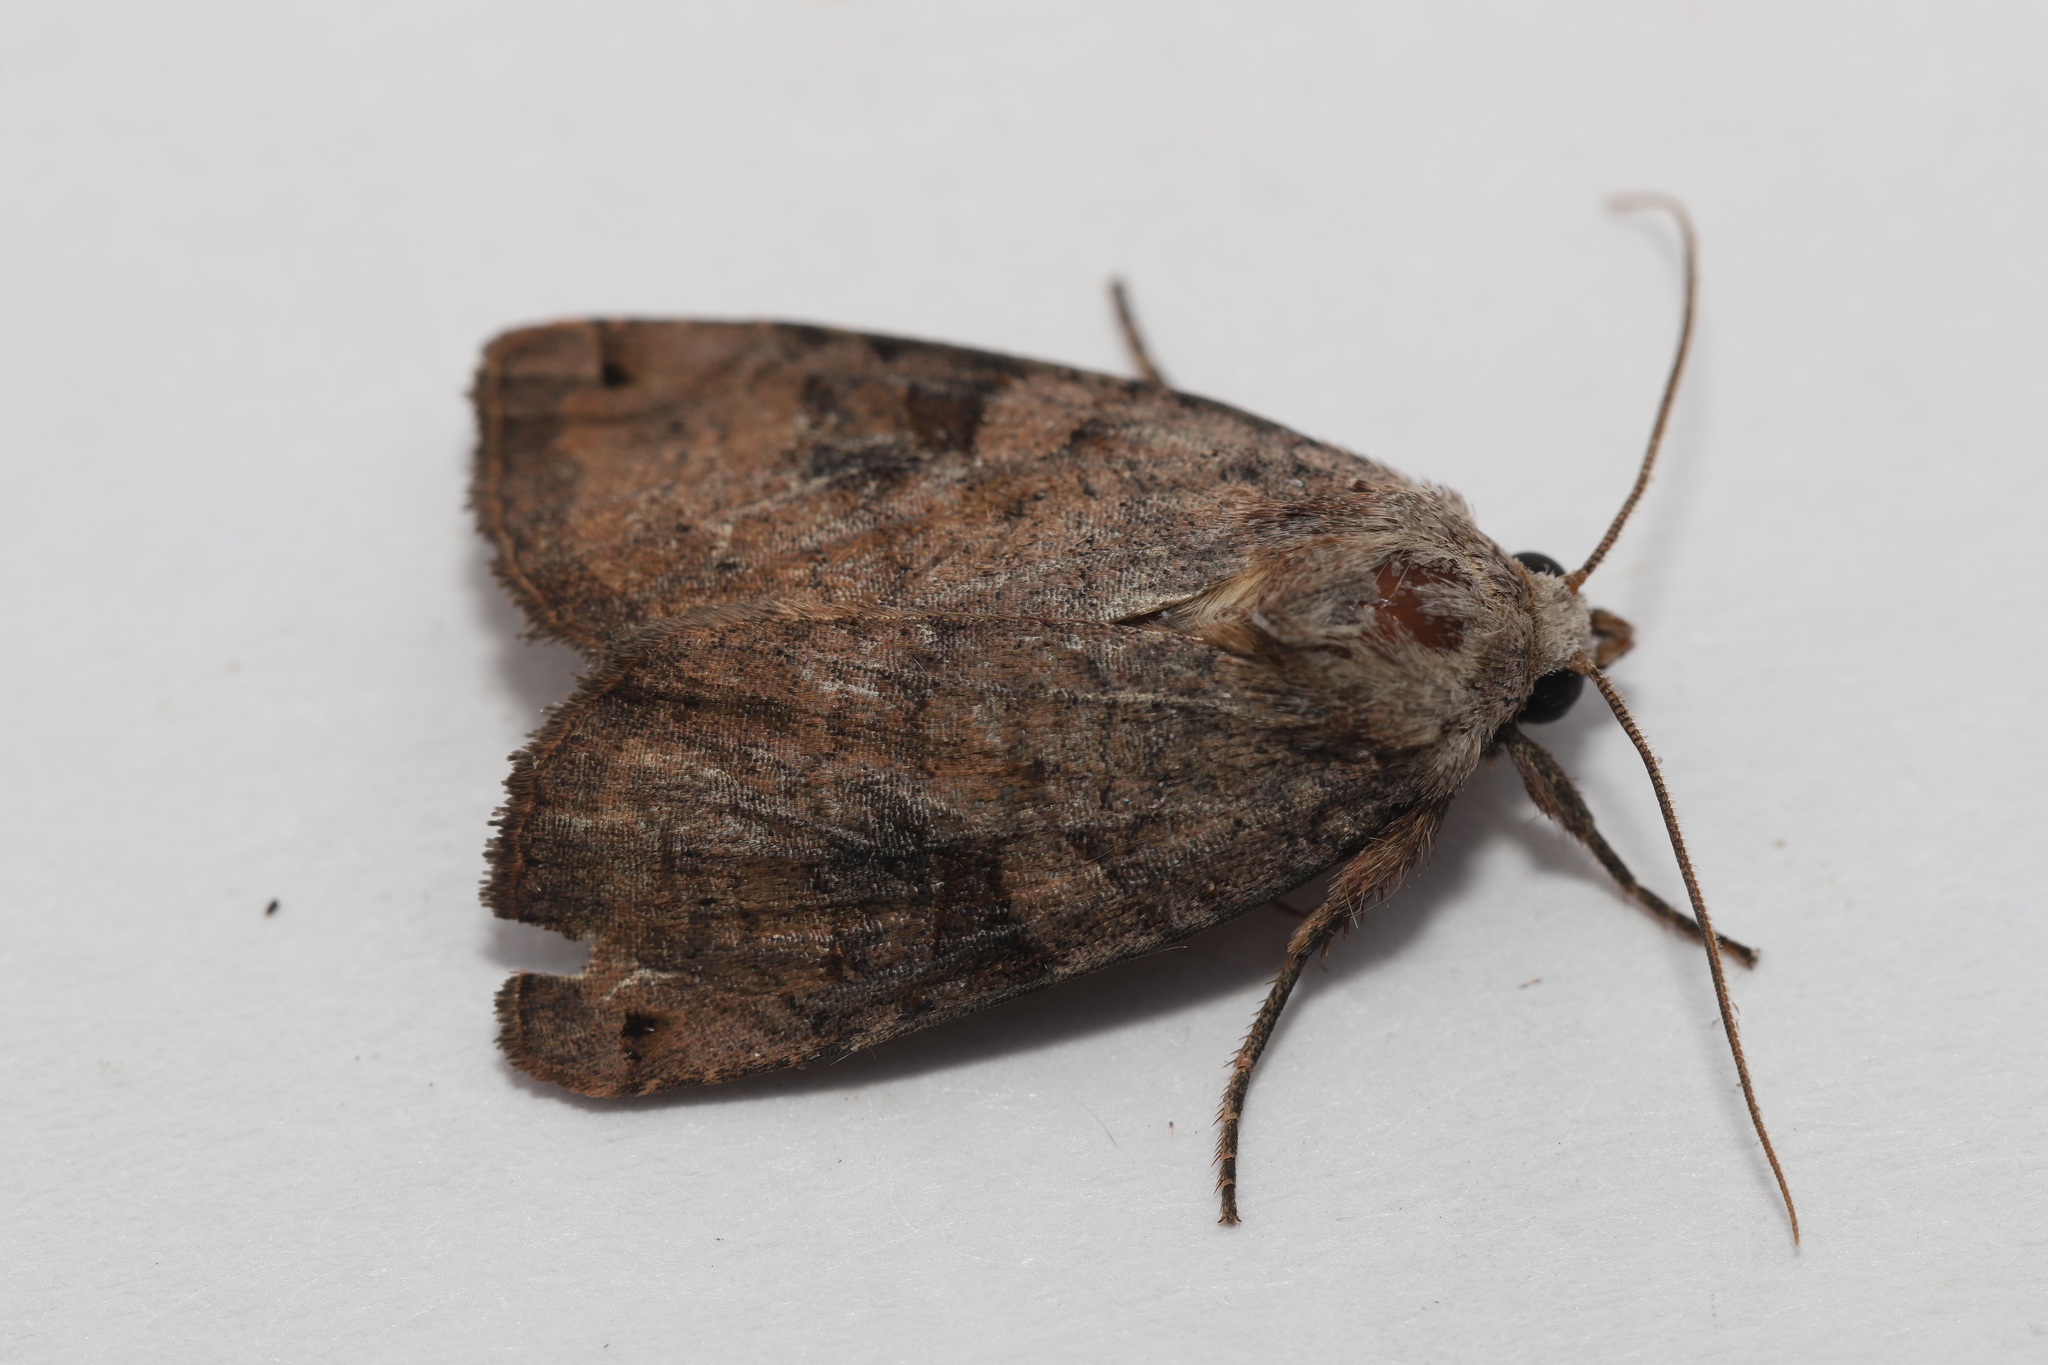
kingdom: Animalia
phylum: Arthropoda
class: Insecta
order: Lepidoptera
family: Noctuidae
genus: Xestia
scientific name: Xestia smithii
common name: Smith's dart
